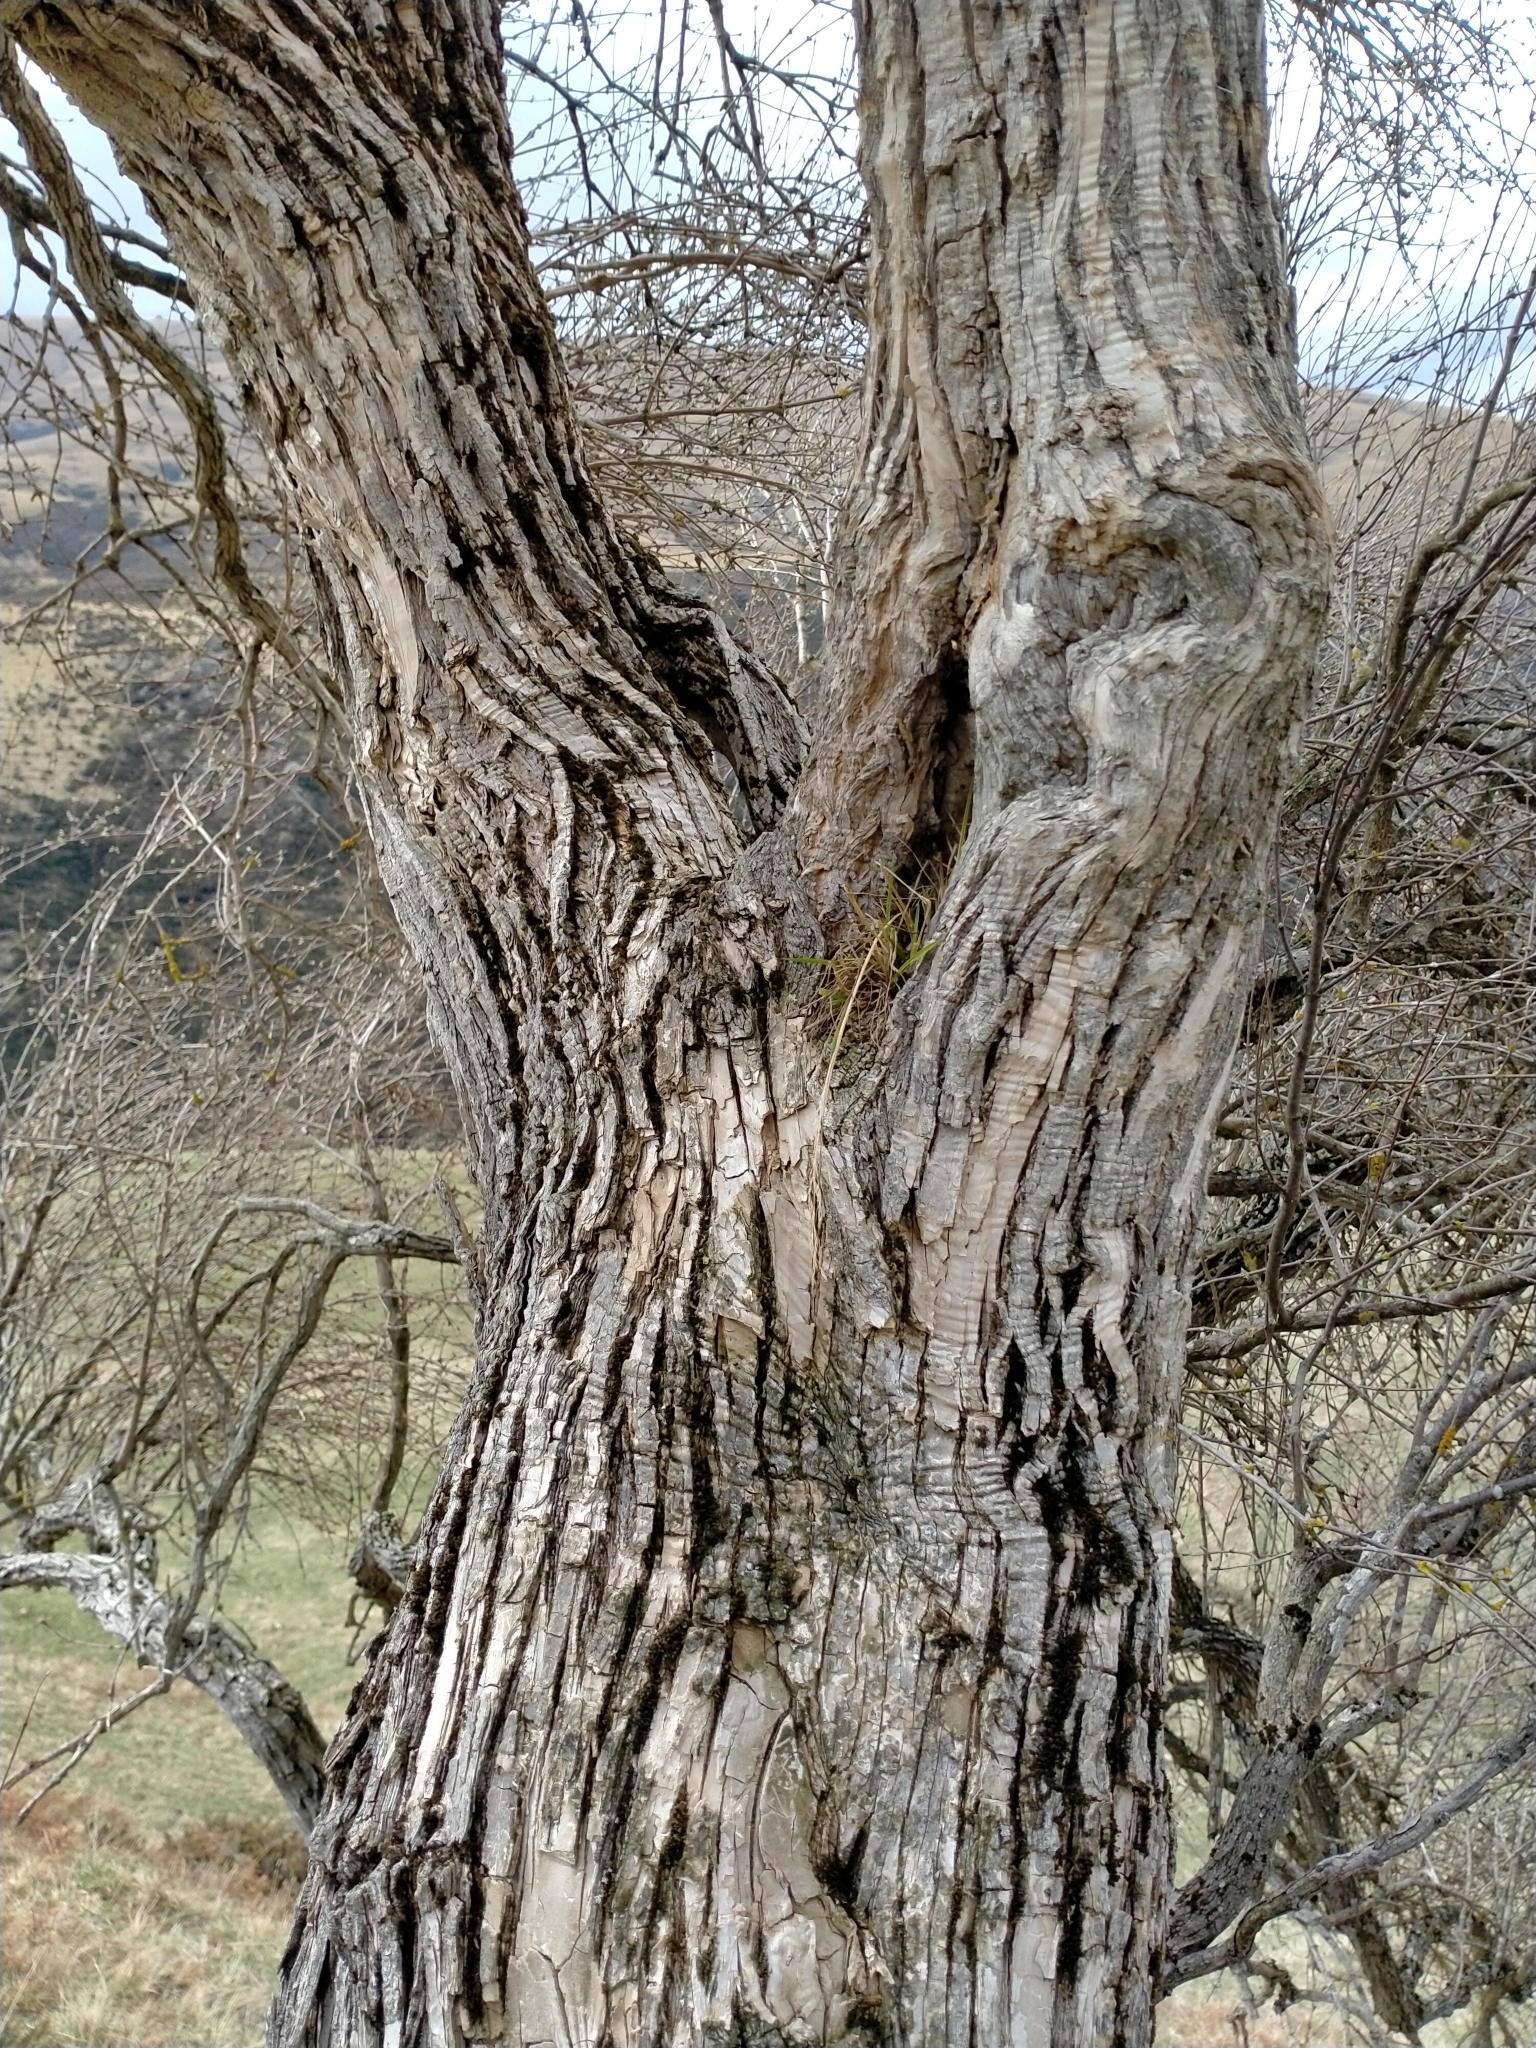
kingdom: Plantae
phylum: Tracheophyta
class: Magnoliopsida
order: Asterales
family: Asteraceae
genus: Olearia
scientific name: Olearia hectorii
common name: Deciduous tree daisy
